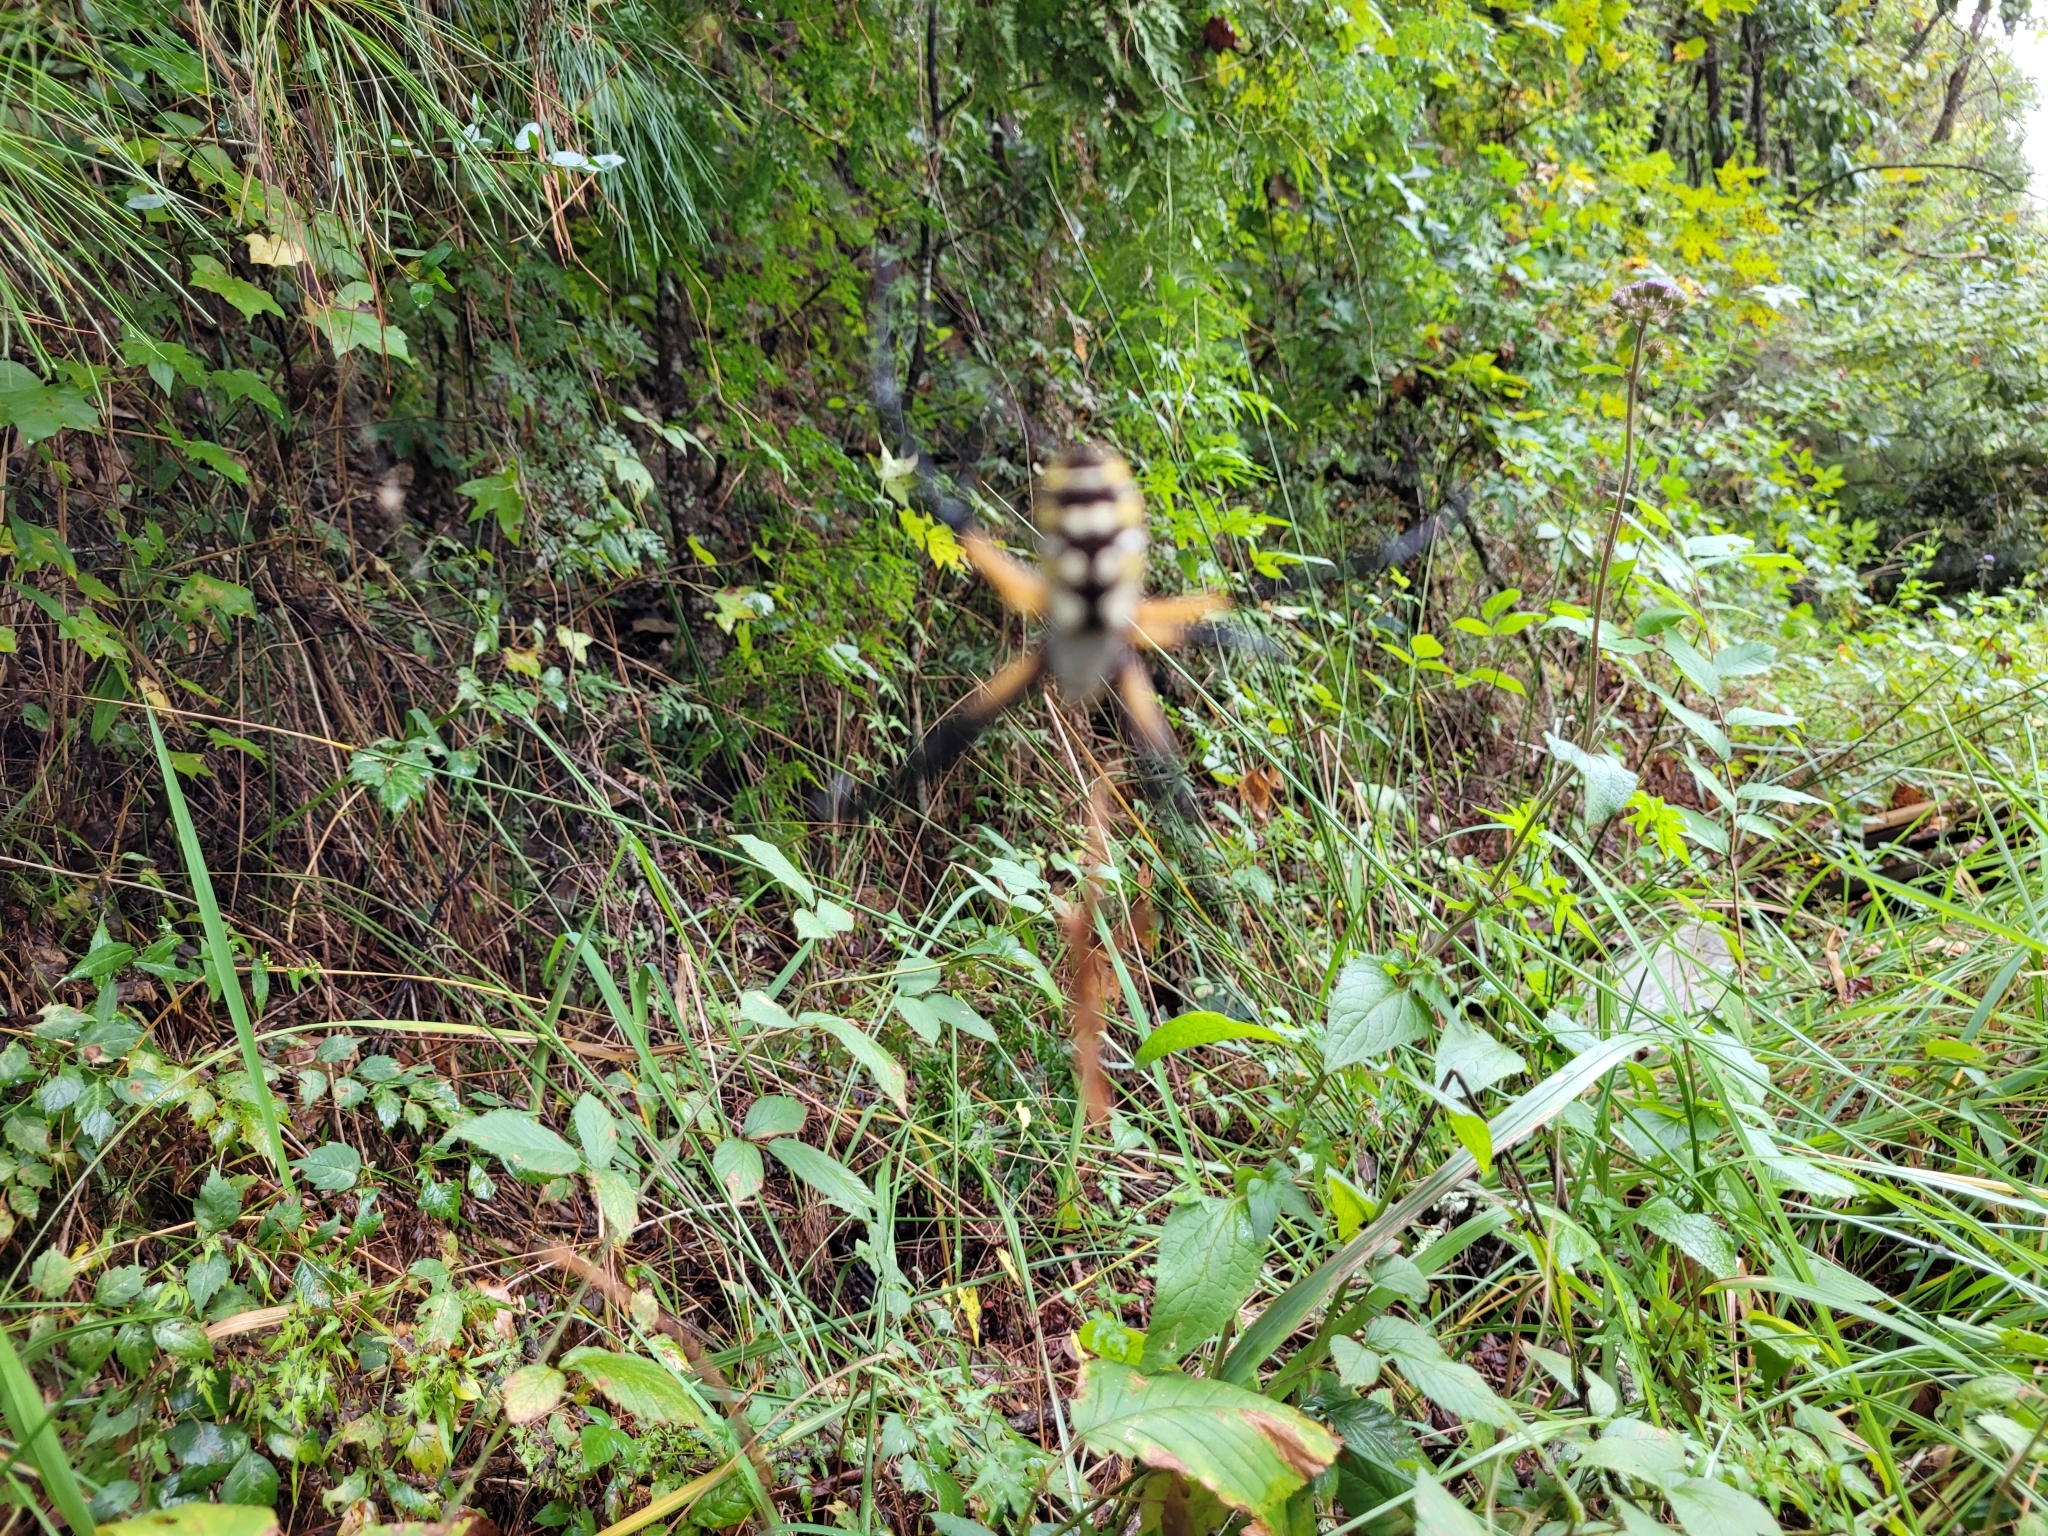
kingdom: Animalia
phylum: Arthropoda
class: Arachnida
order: Araneae
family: Araneidae
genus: Argiope
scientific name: Argiope aurantia
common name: Orb weavers
